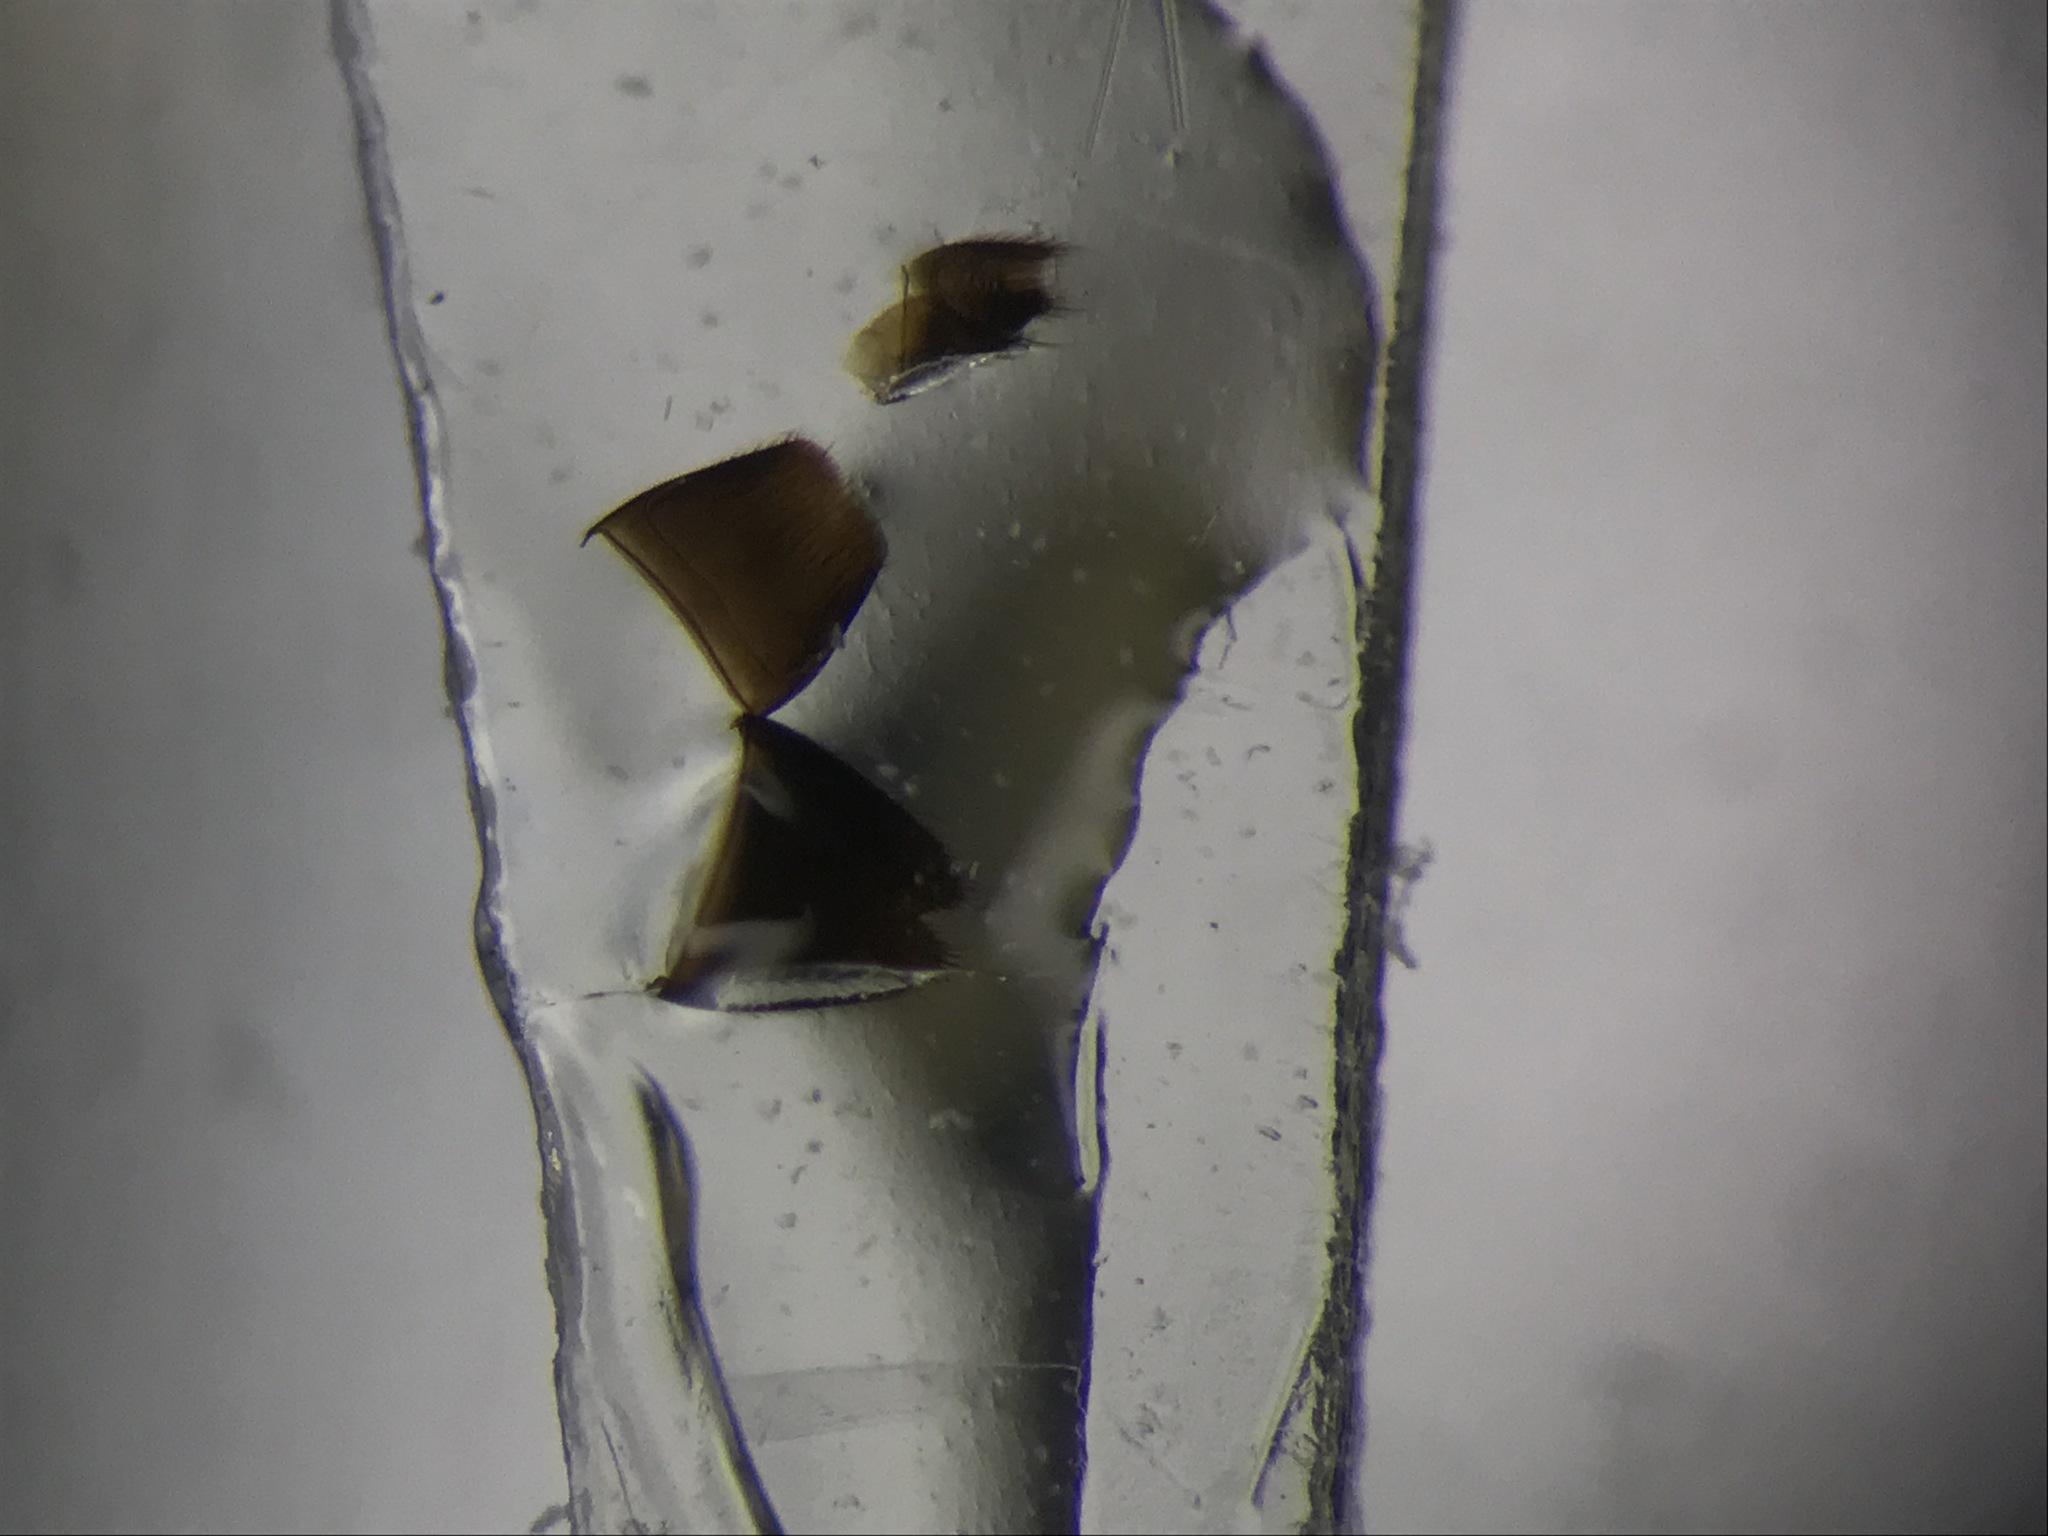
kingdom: Animalia
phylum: Arthropoda
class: Insecta
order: Coleoptera
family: Staphylinidae
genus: Dasygnypeta
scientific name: Dasygnypeta nigrella
